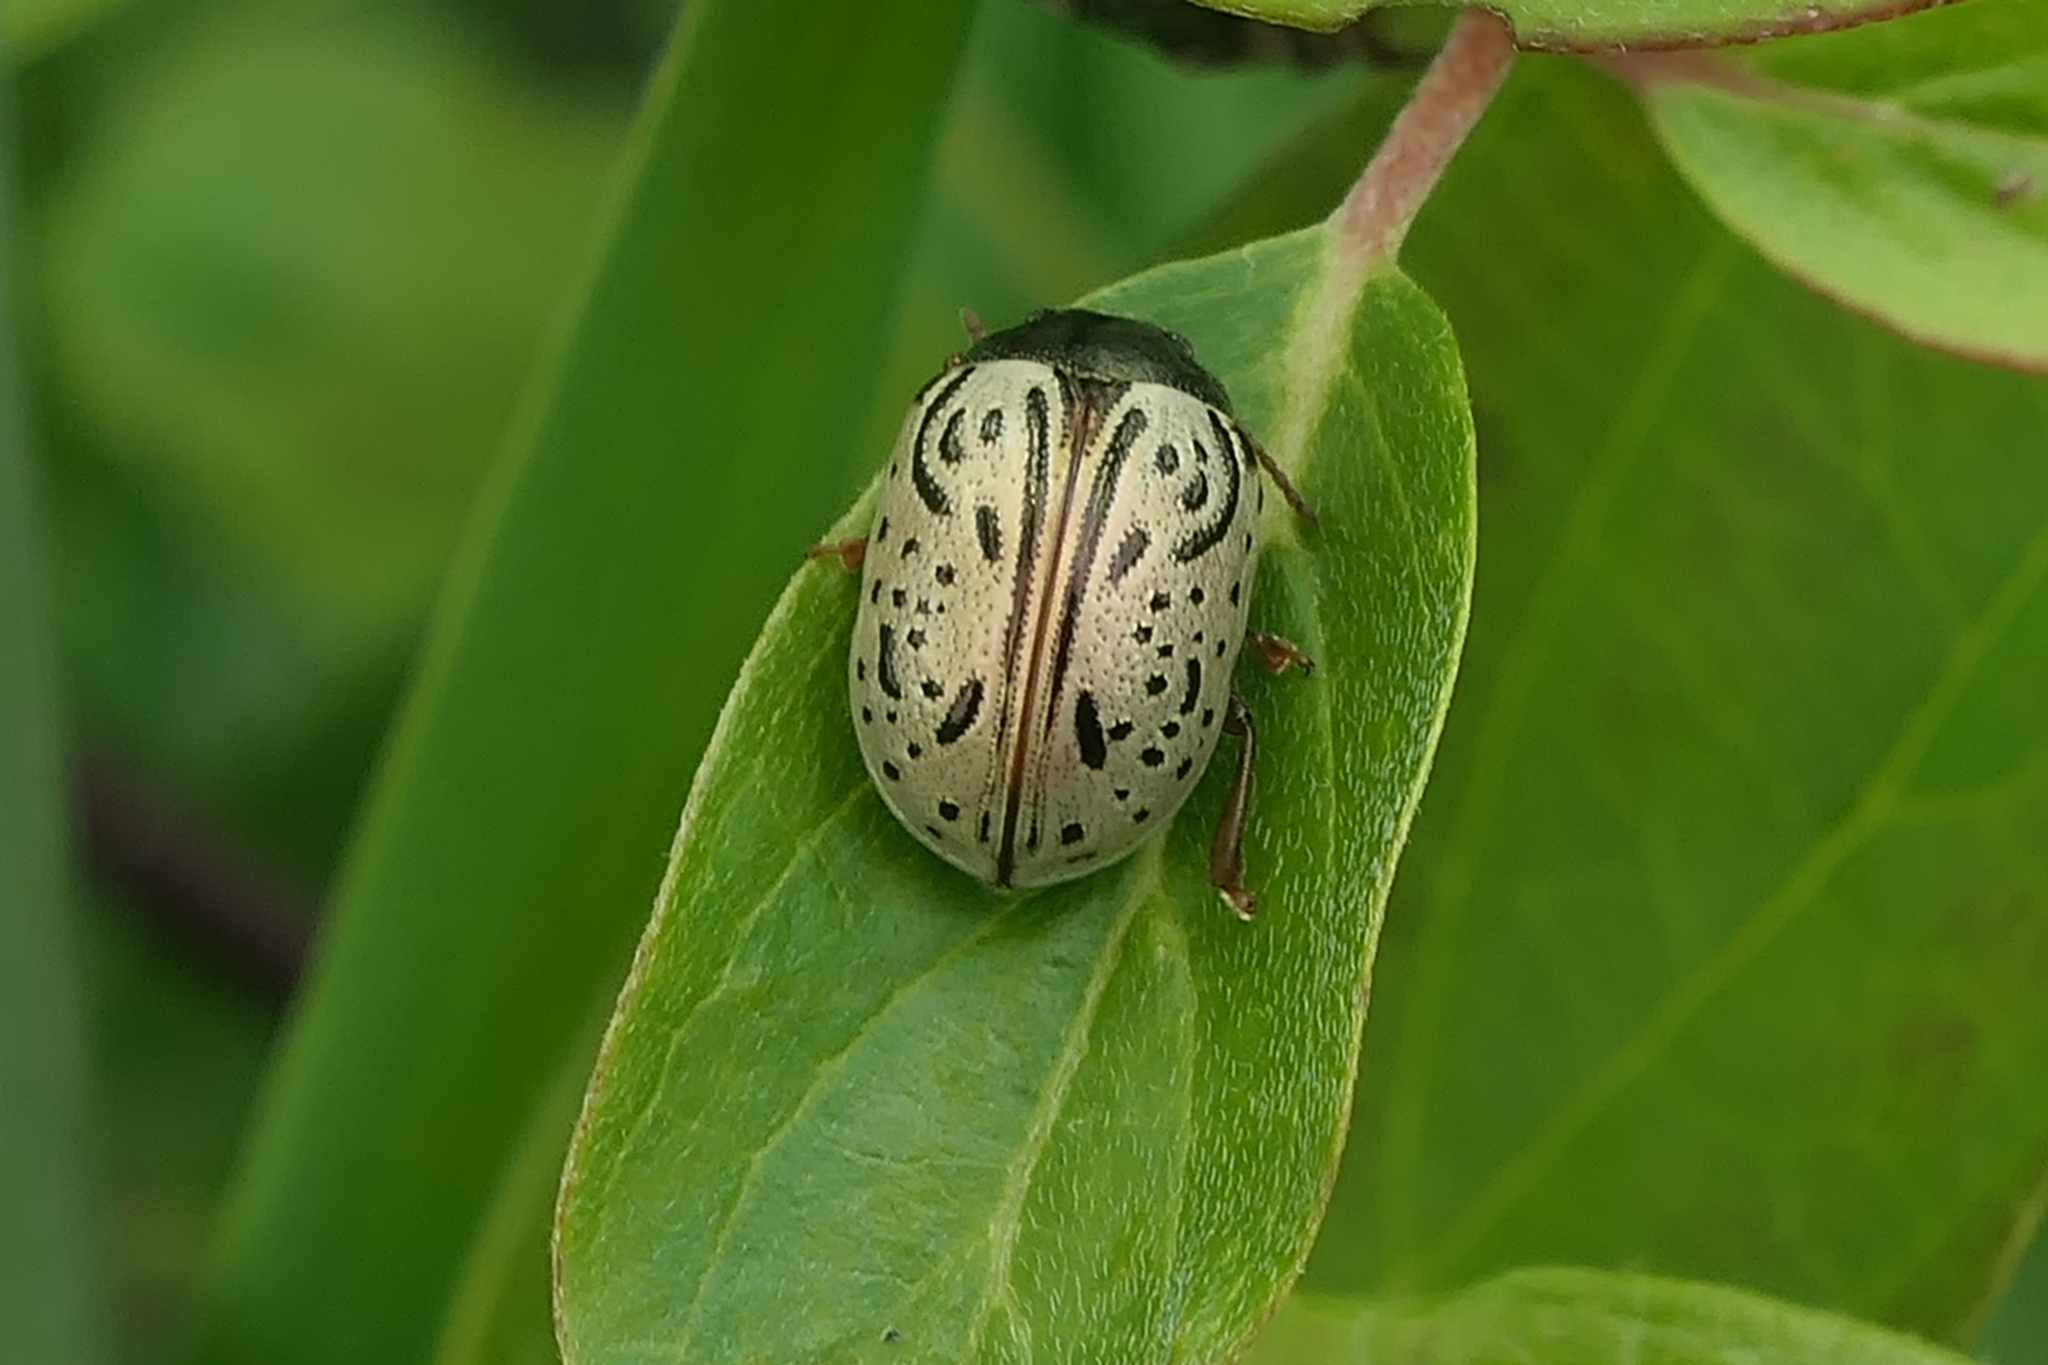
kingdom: Animalia
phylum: Arthropoda
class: Insecta
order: Coleoptera
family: Chrysomelidae
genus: Calligrapha
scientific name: Calligrapha philadelphica
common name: Dogwood leaf beetle
